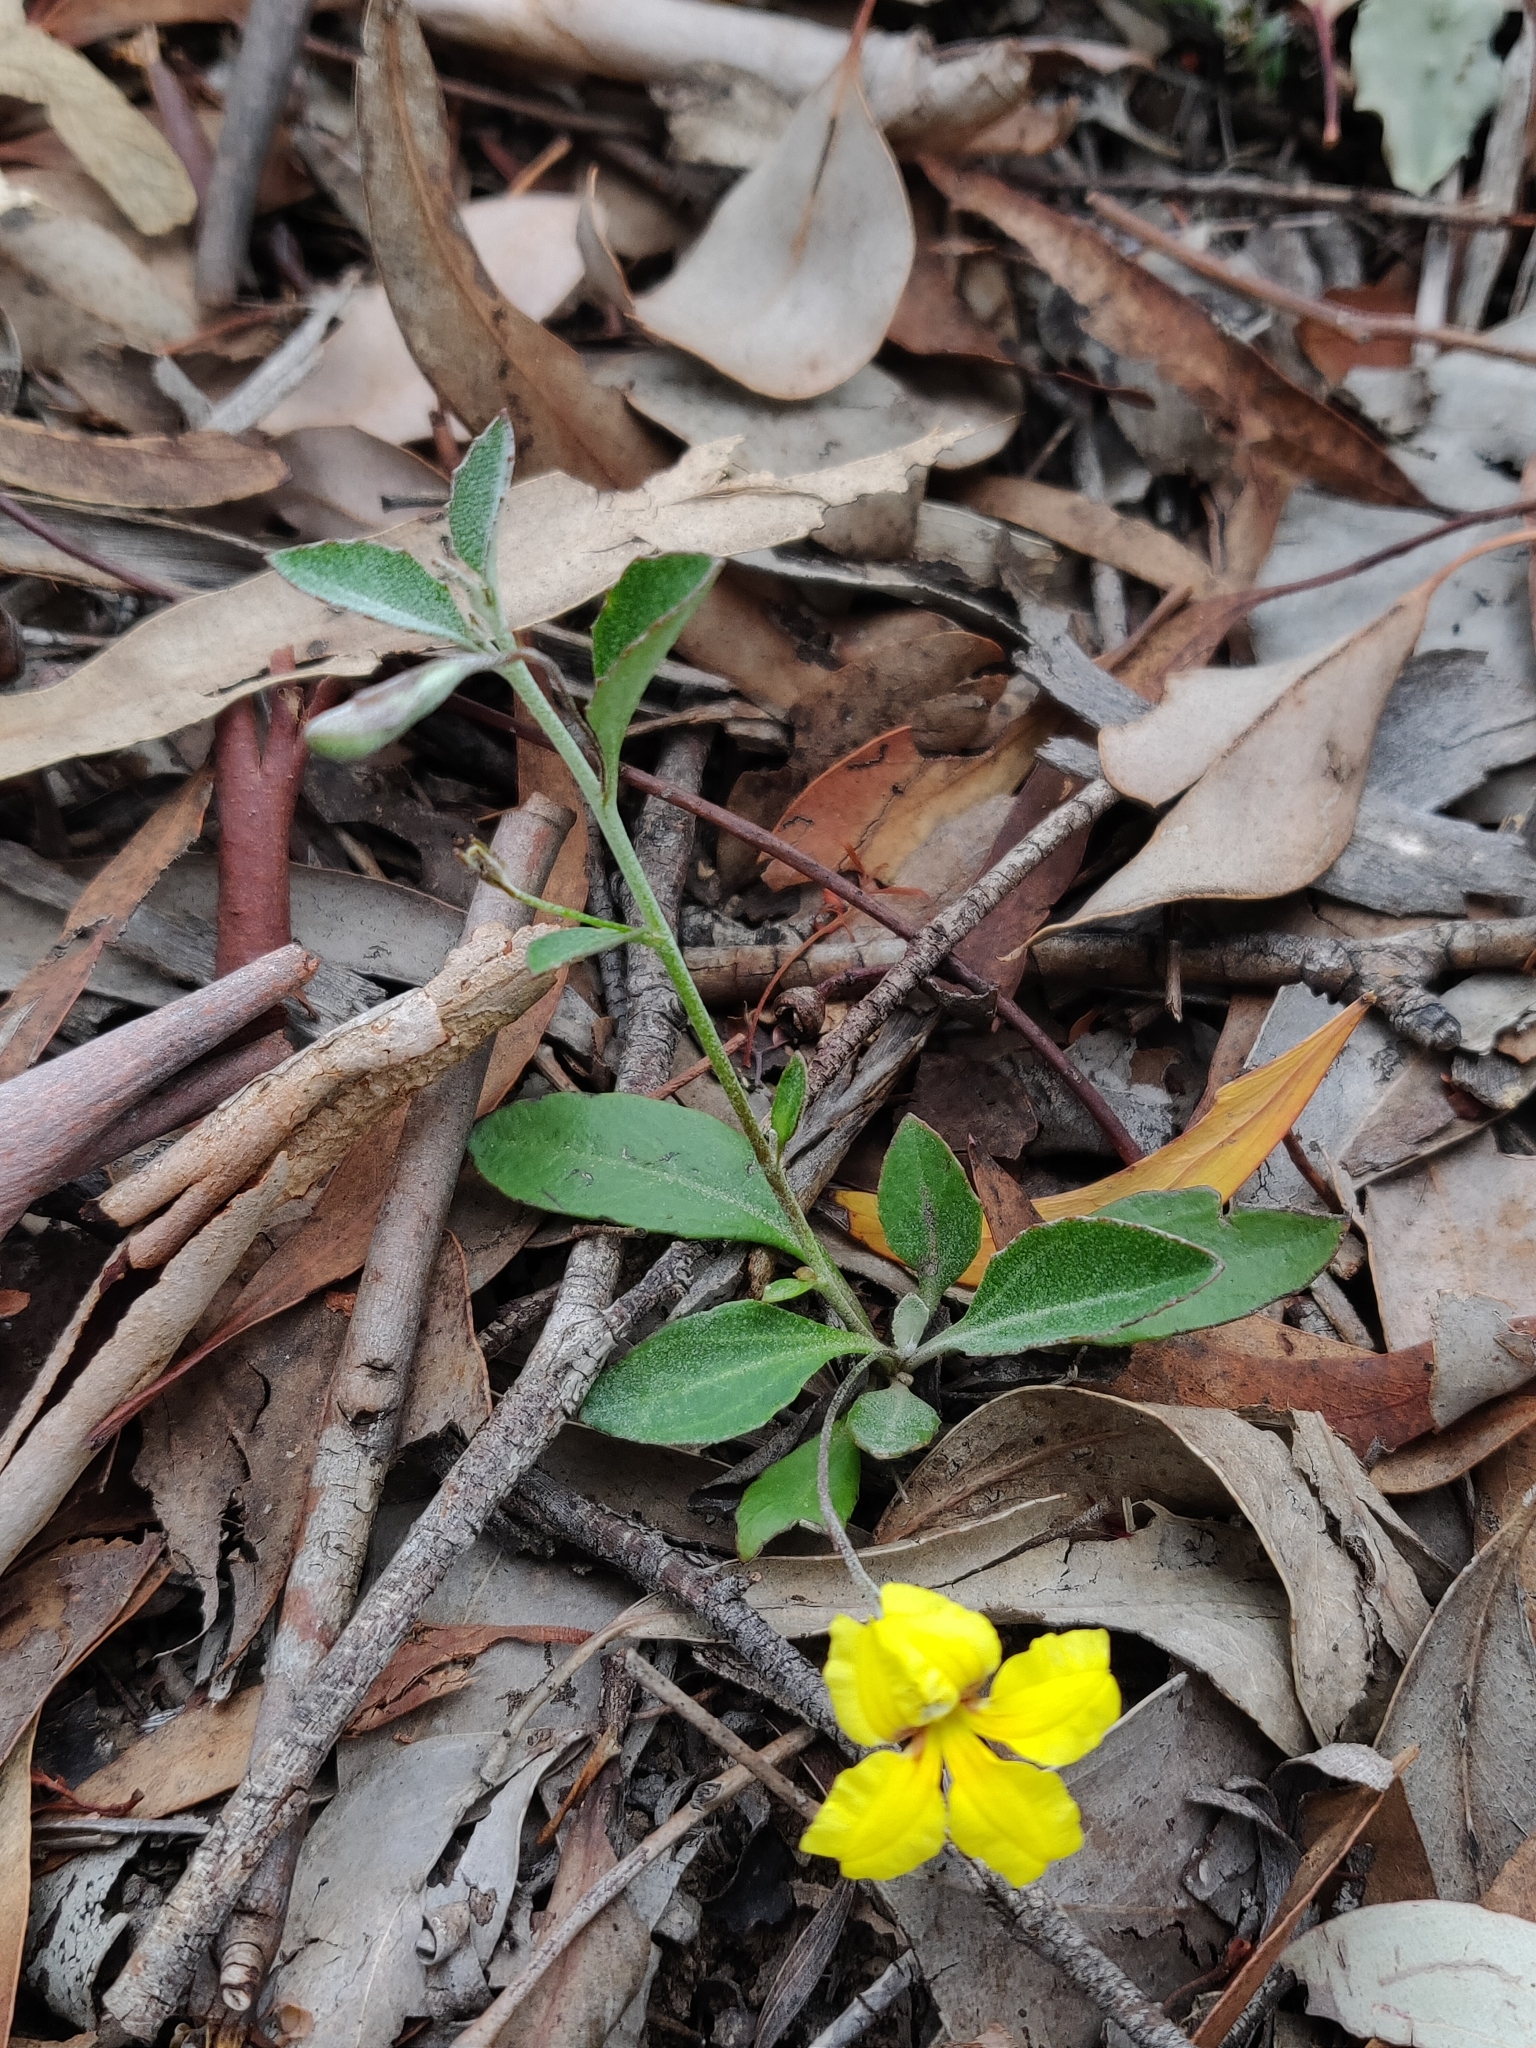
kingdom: Plantae
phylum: Tracheophyta
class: Magnoliopsida
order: Asterales
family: Goodeniaceae
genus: Goodenia
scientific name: Goodenia hederacea
